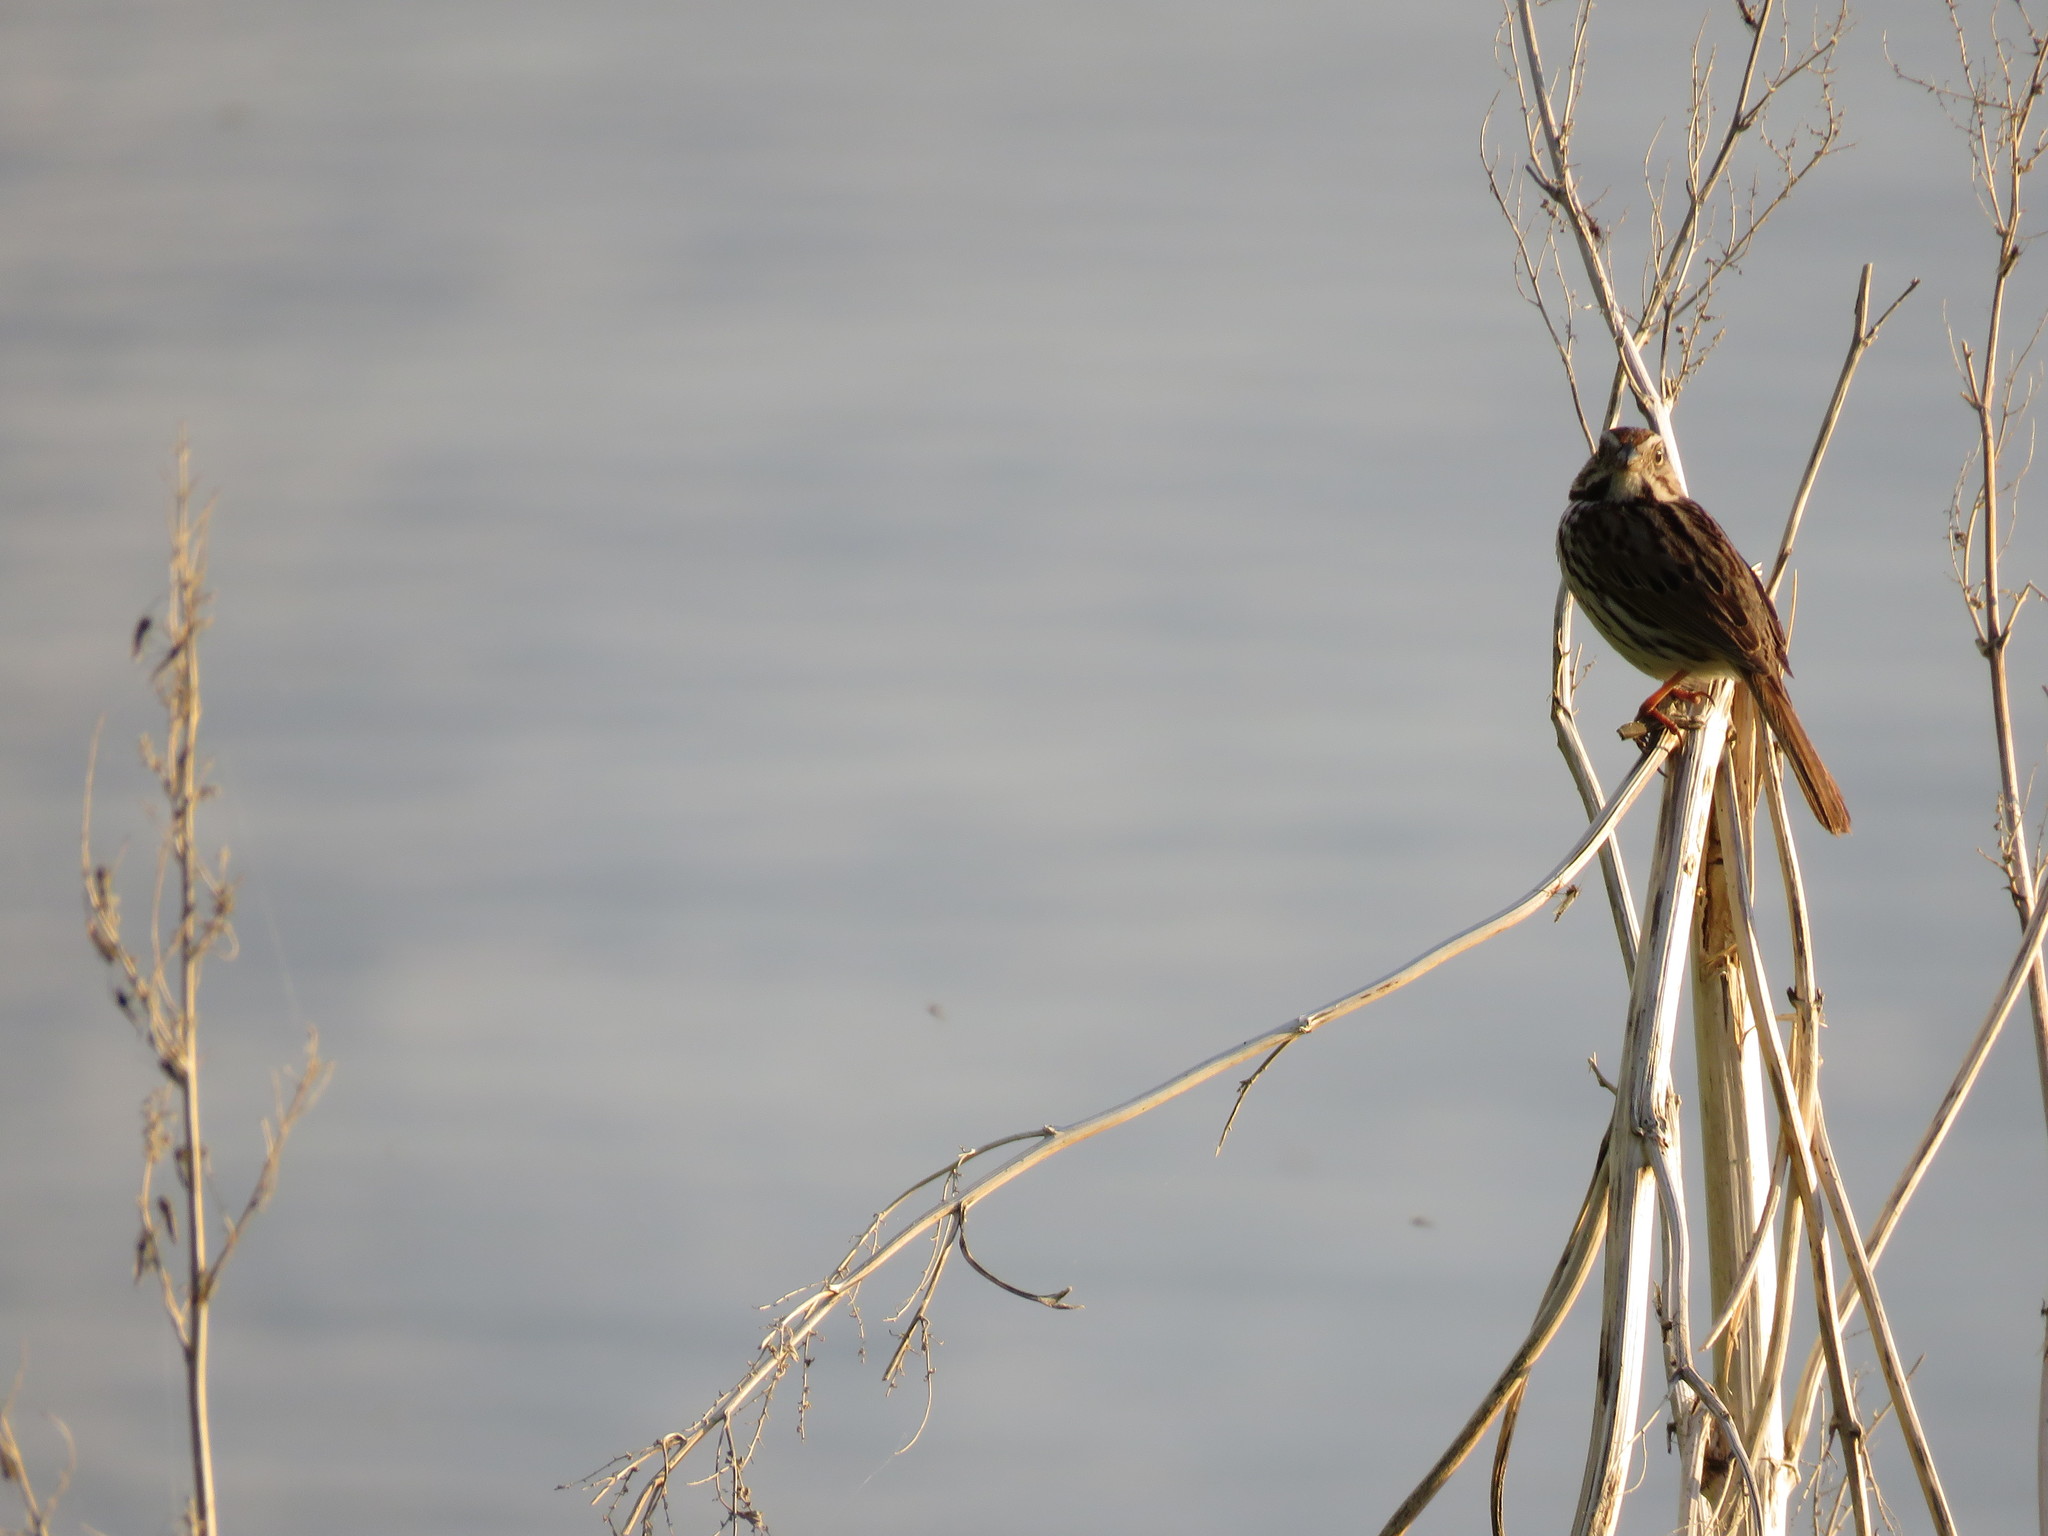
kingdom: Animalia
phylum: Chordata
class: Aves
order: Passeriformes
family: Passerellidae
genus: Melospiza
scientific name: Melospiza melodia
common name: Song sparrow
